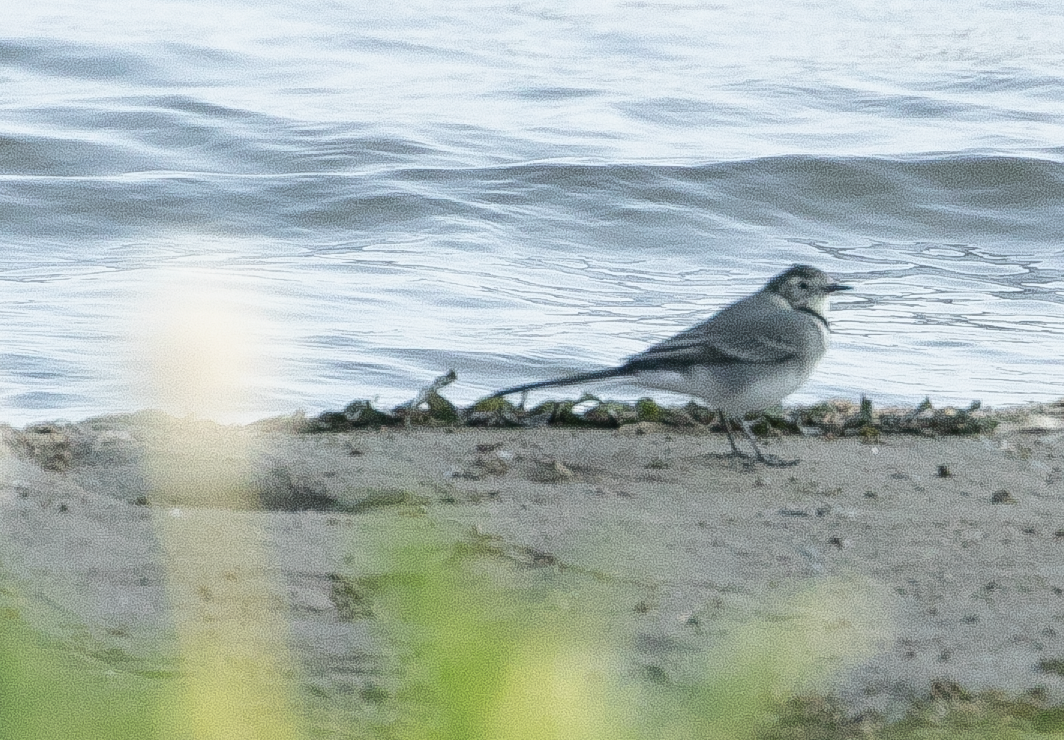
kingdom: Animalia
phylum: Chordata
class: Aves
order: Passeriformes
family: Motacillidae
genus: Motacilla
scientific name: Motacilla alba
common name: White wagtail
